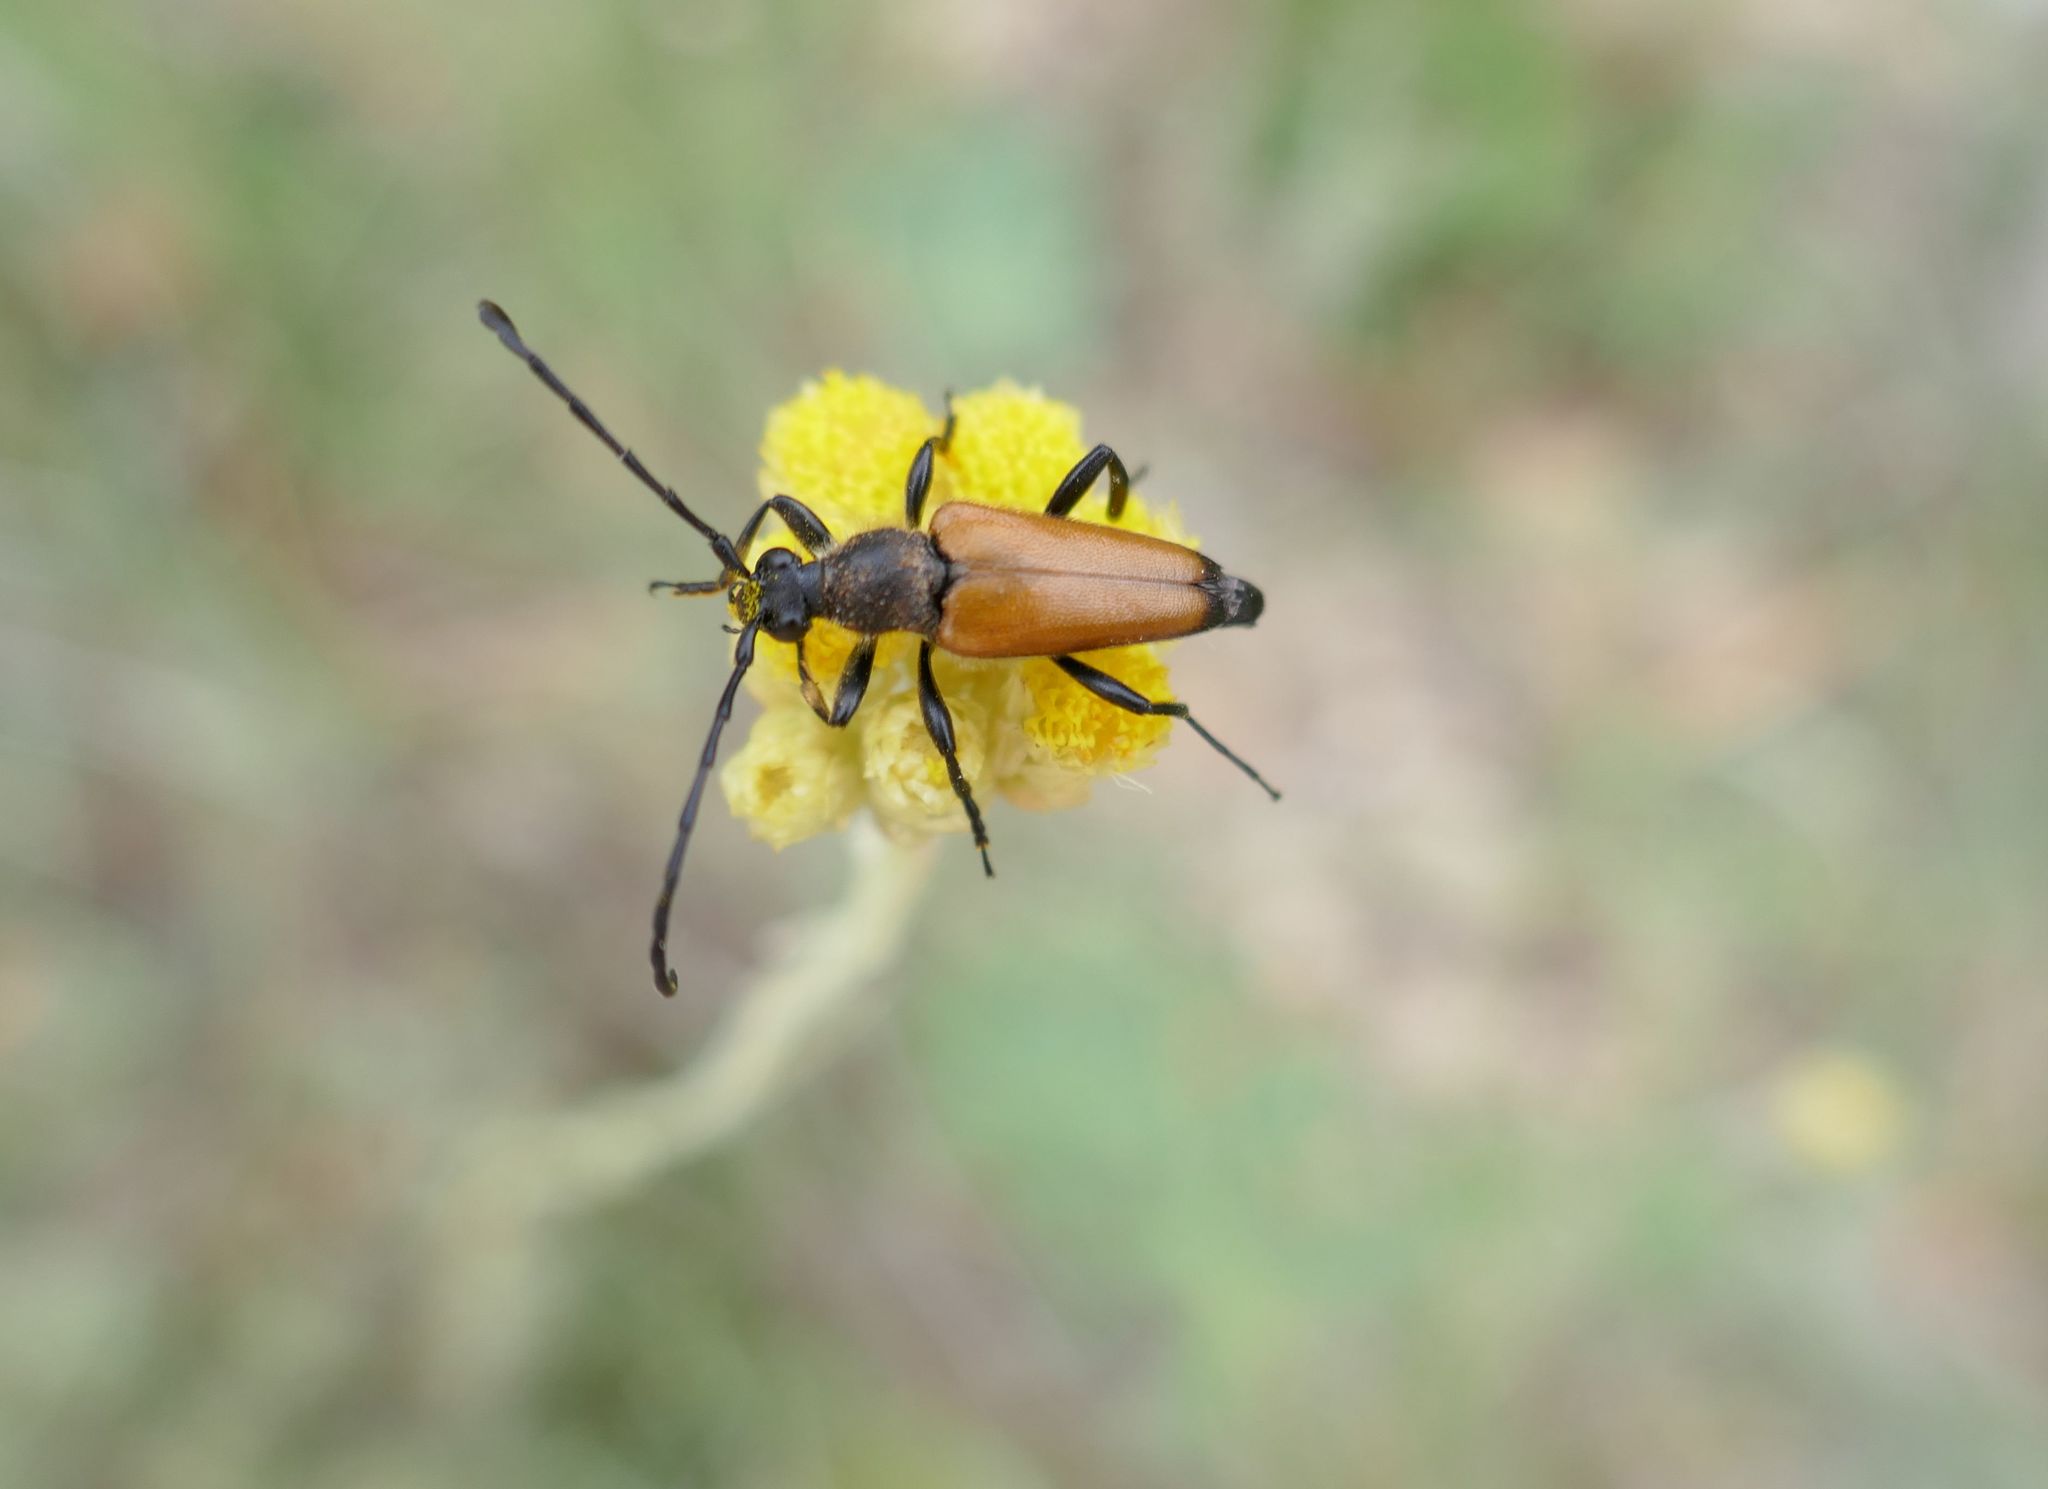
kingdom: Animalia
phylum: Arthropoda
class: Insecta
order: Coleoptera
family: Cerambycidae
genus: Paracorymbia
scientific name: Paracorymbia fulva
